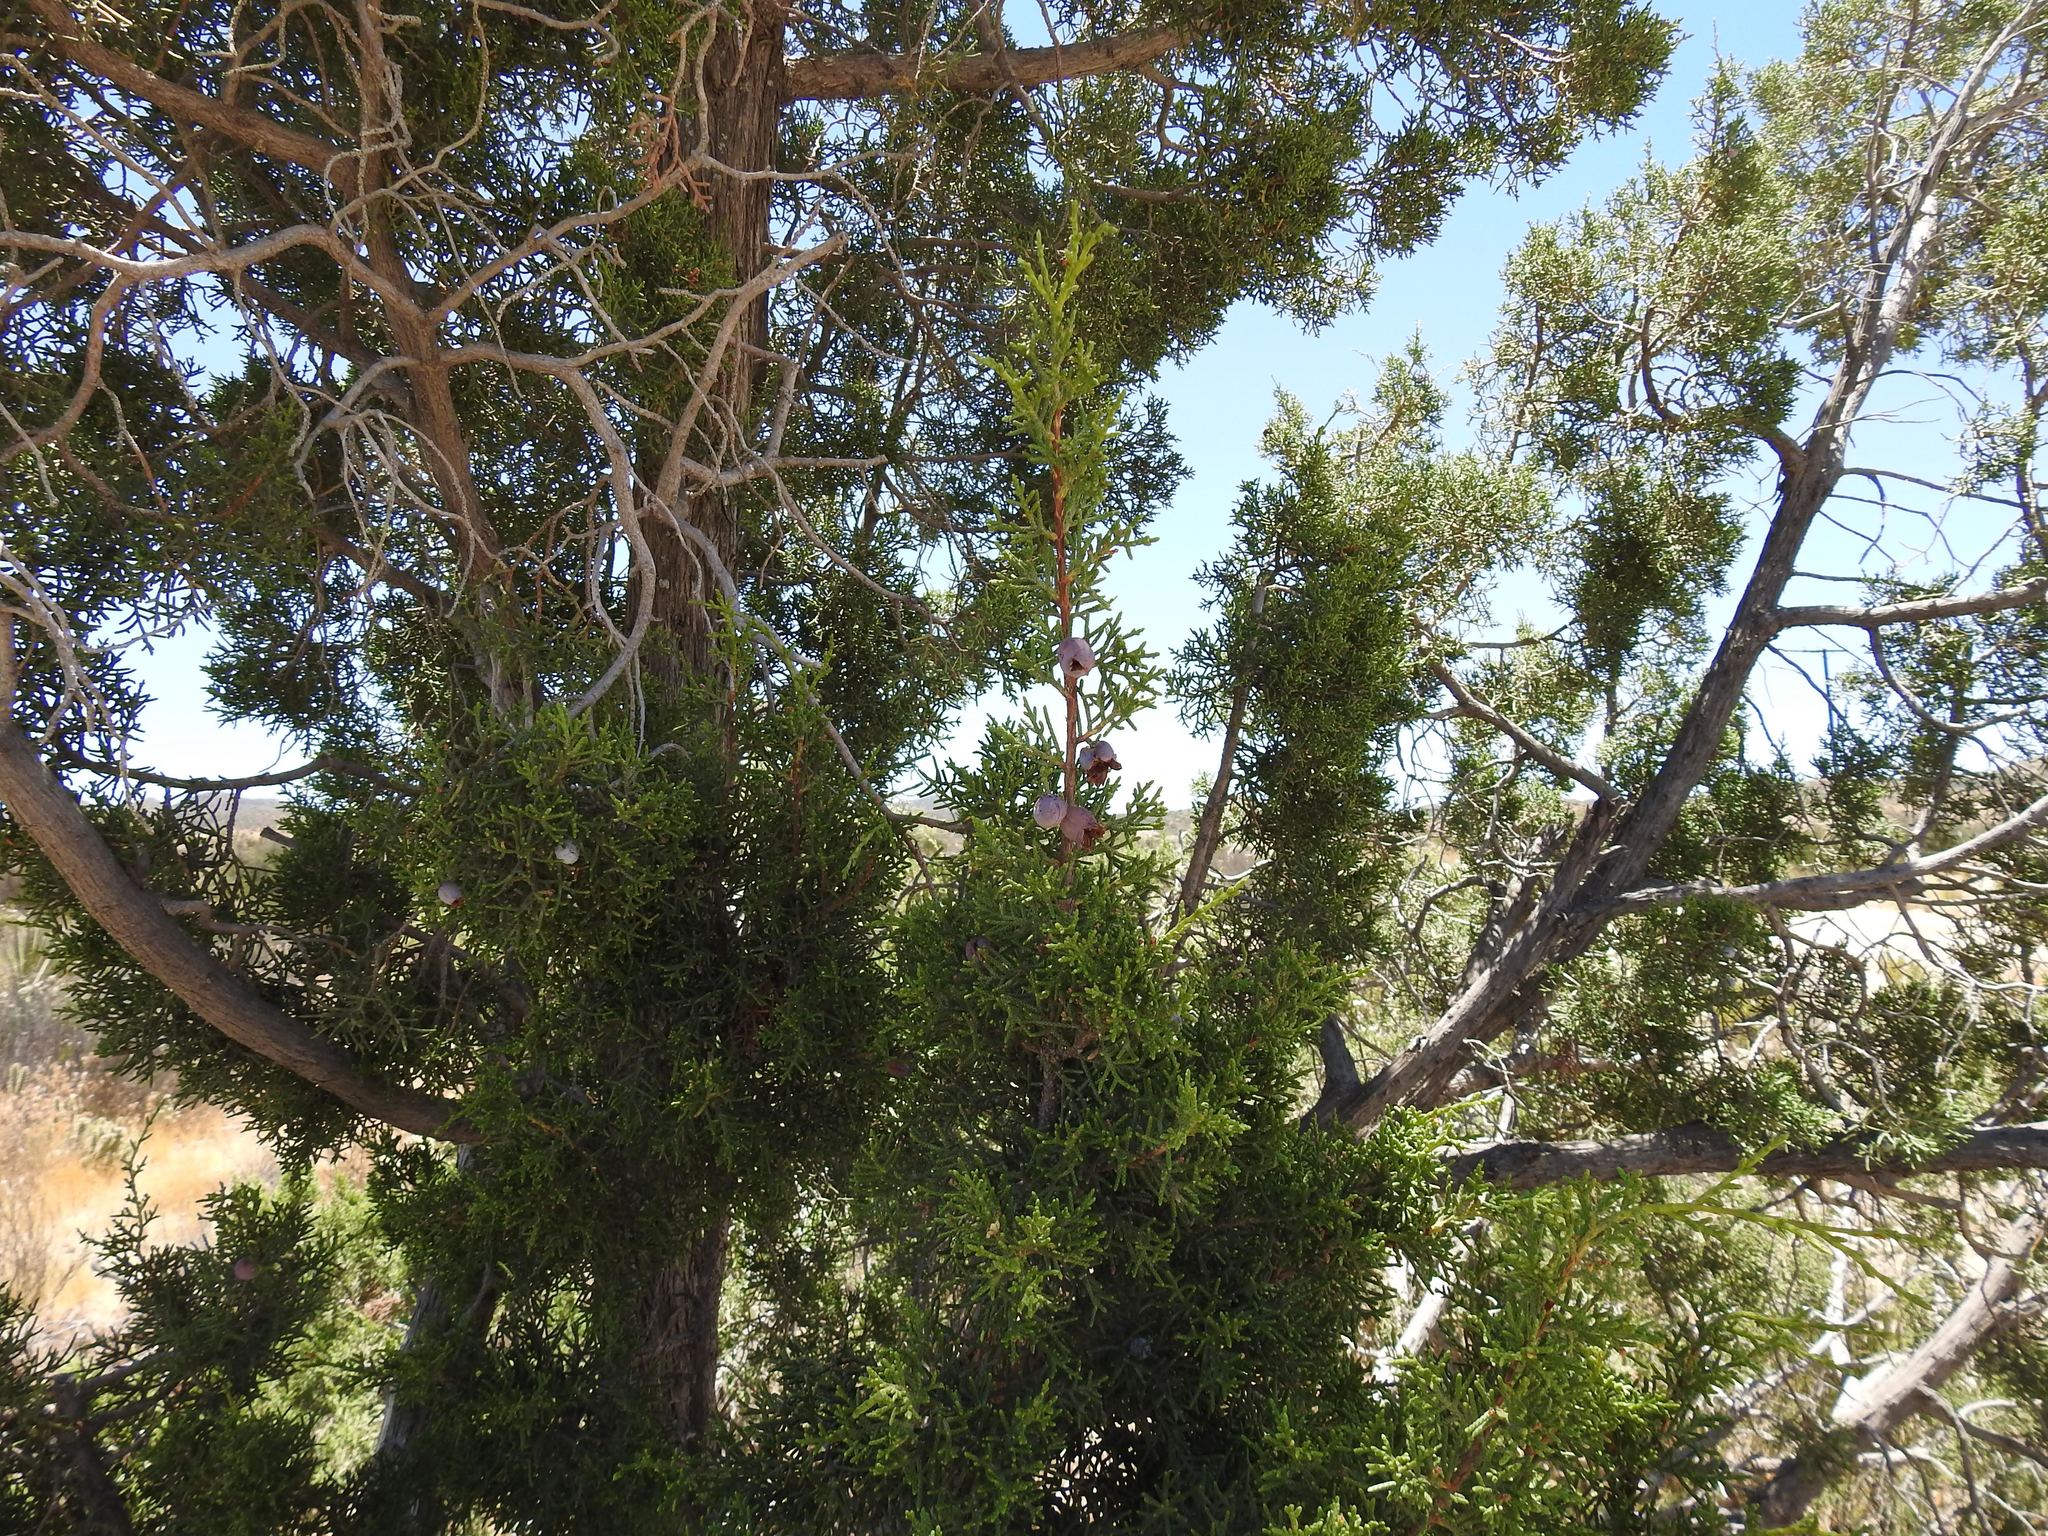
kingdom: Plantae
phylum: Tracheophyta
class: Pinopsida
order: Pinales
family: Cupressaceae
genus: Juniperus
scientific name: Juniperus californica
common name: California juniper
